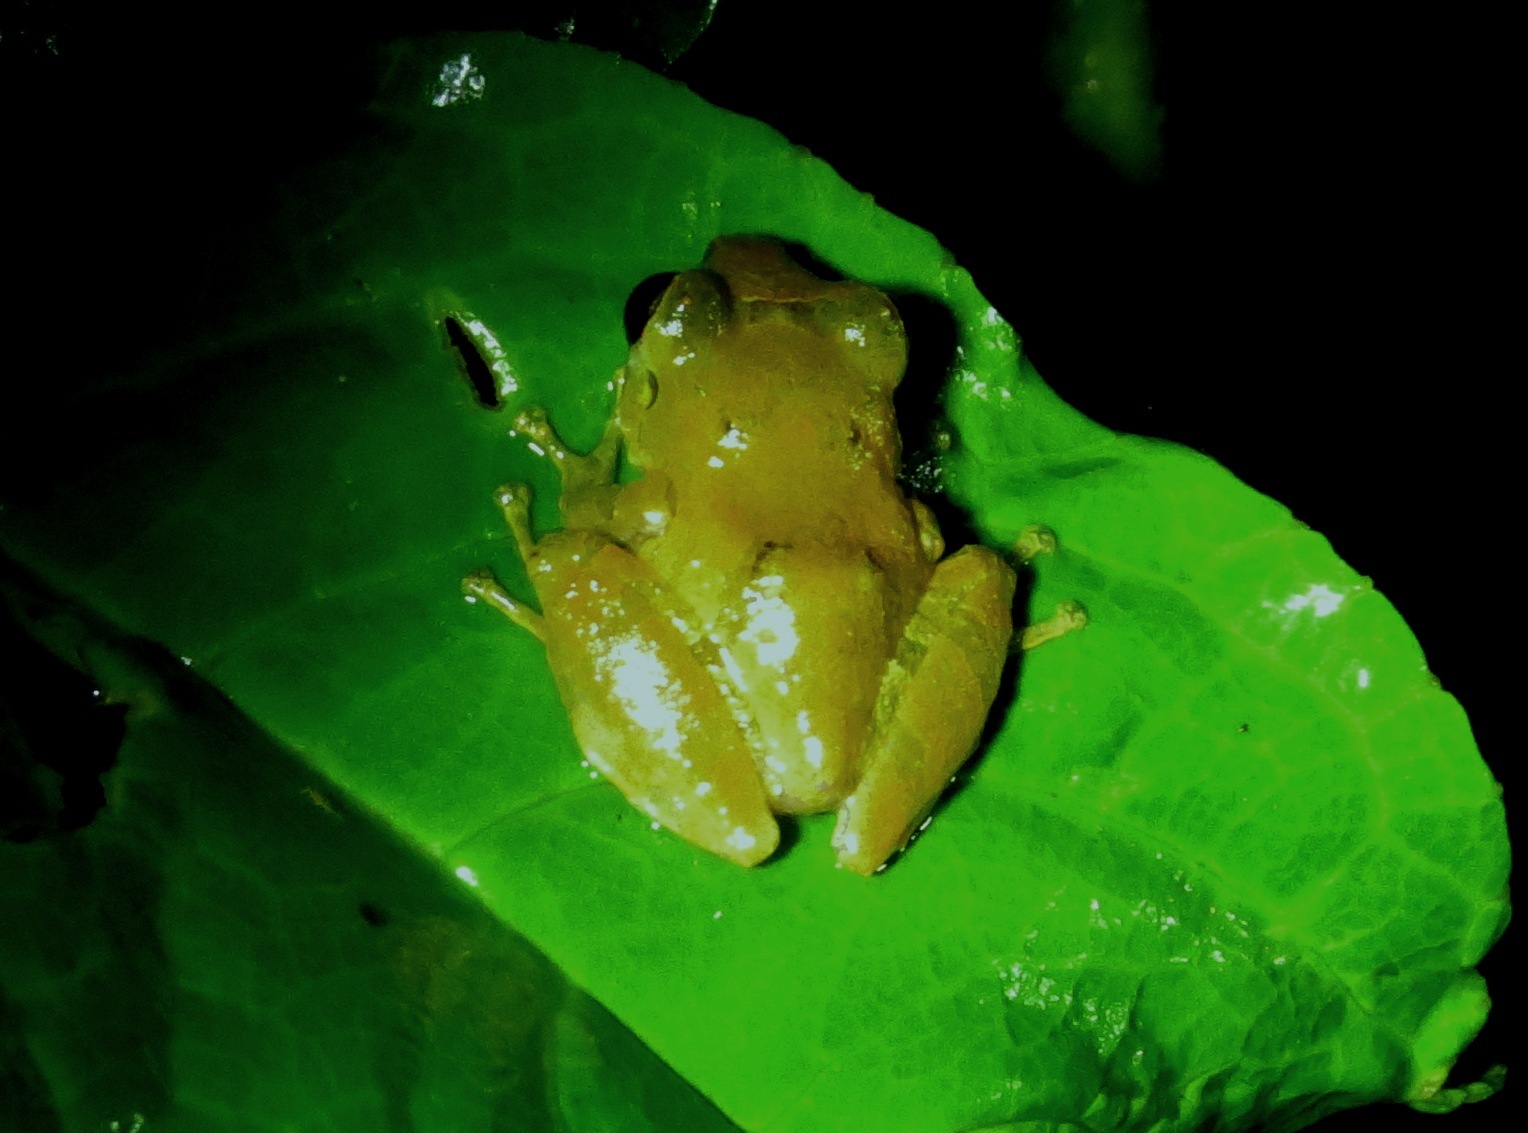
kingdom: Animalia
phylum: Chordata
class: Amphibia
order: Anura
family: Craugastoridae
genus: Pristimantis
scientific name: Pristimantis ridens
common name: Rio san juan robber frog
